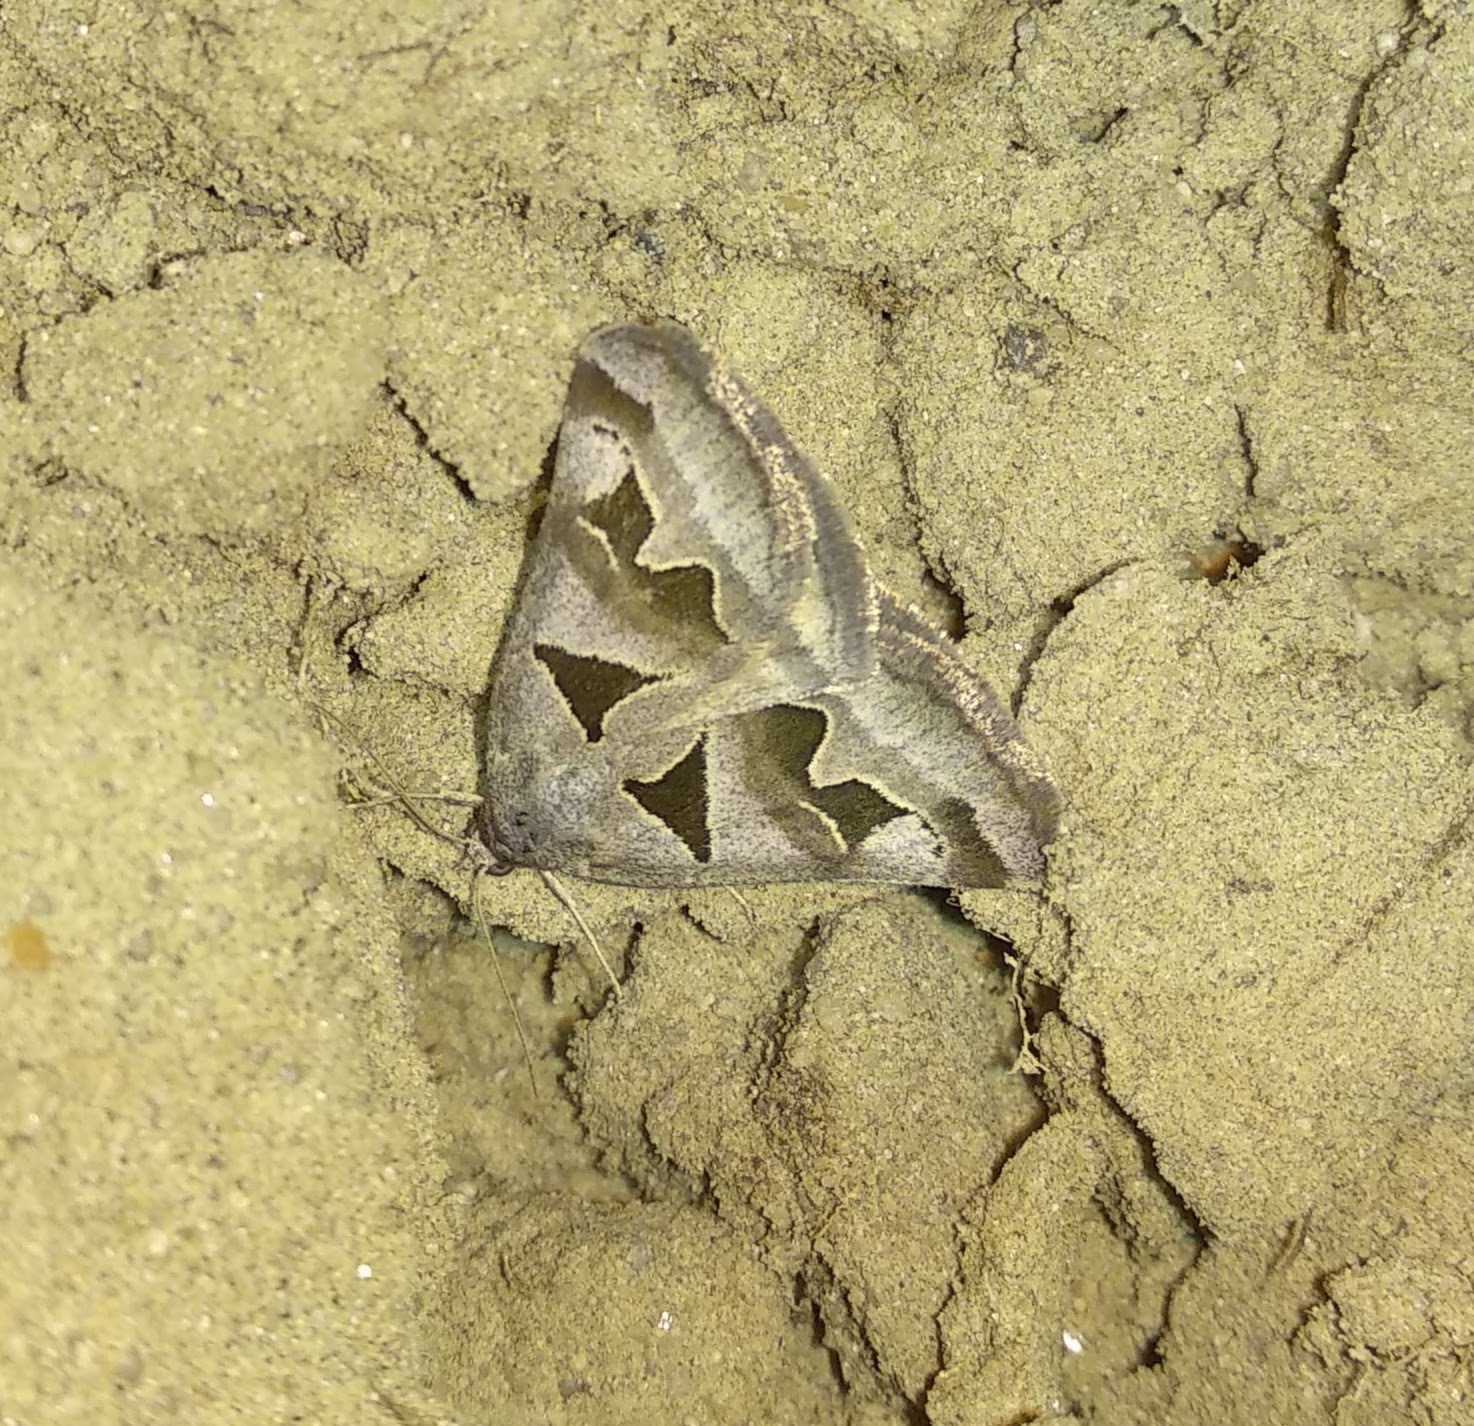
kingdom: Animalia
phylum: Arthropoda
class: Insecta
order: Lepidoptera
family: Erebidae
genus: Euclidia
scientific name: Euclidia triquetra
